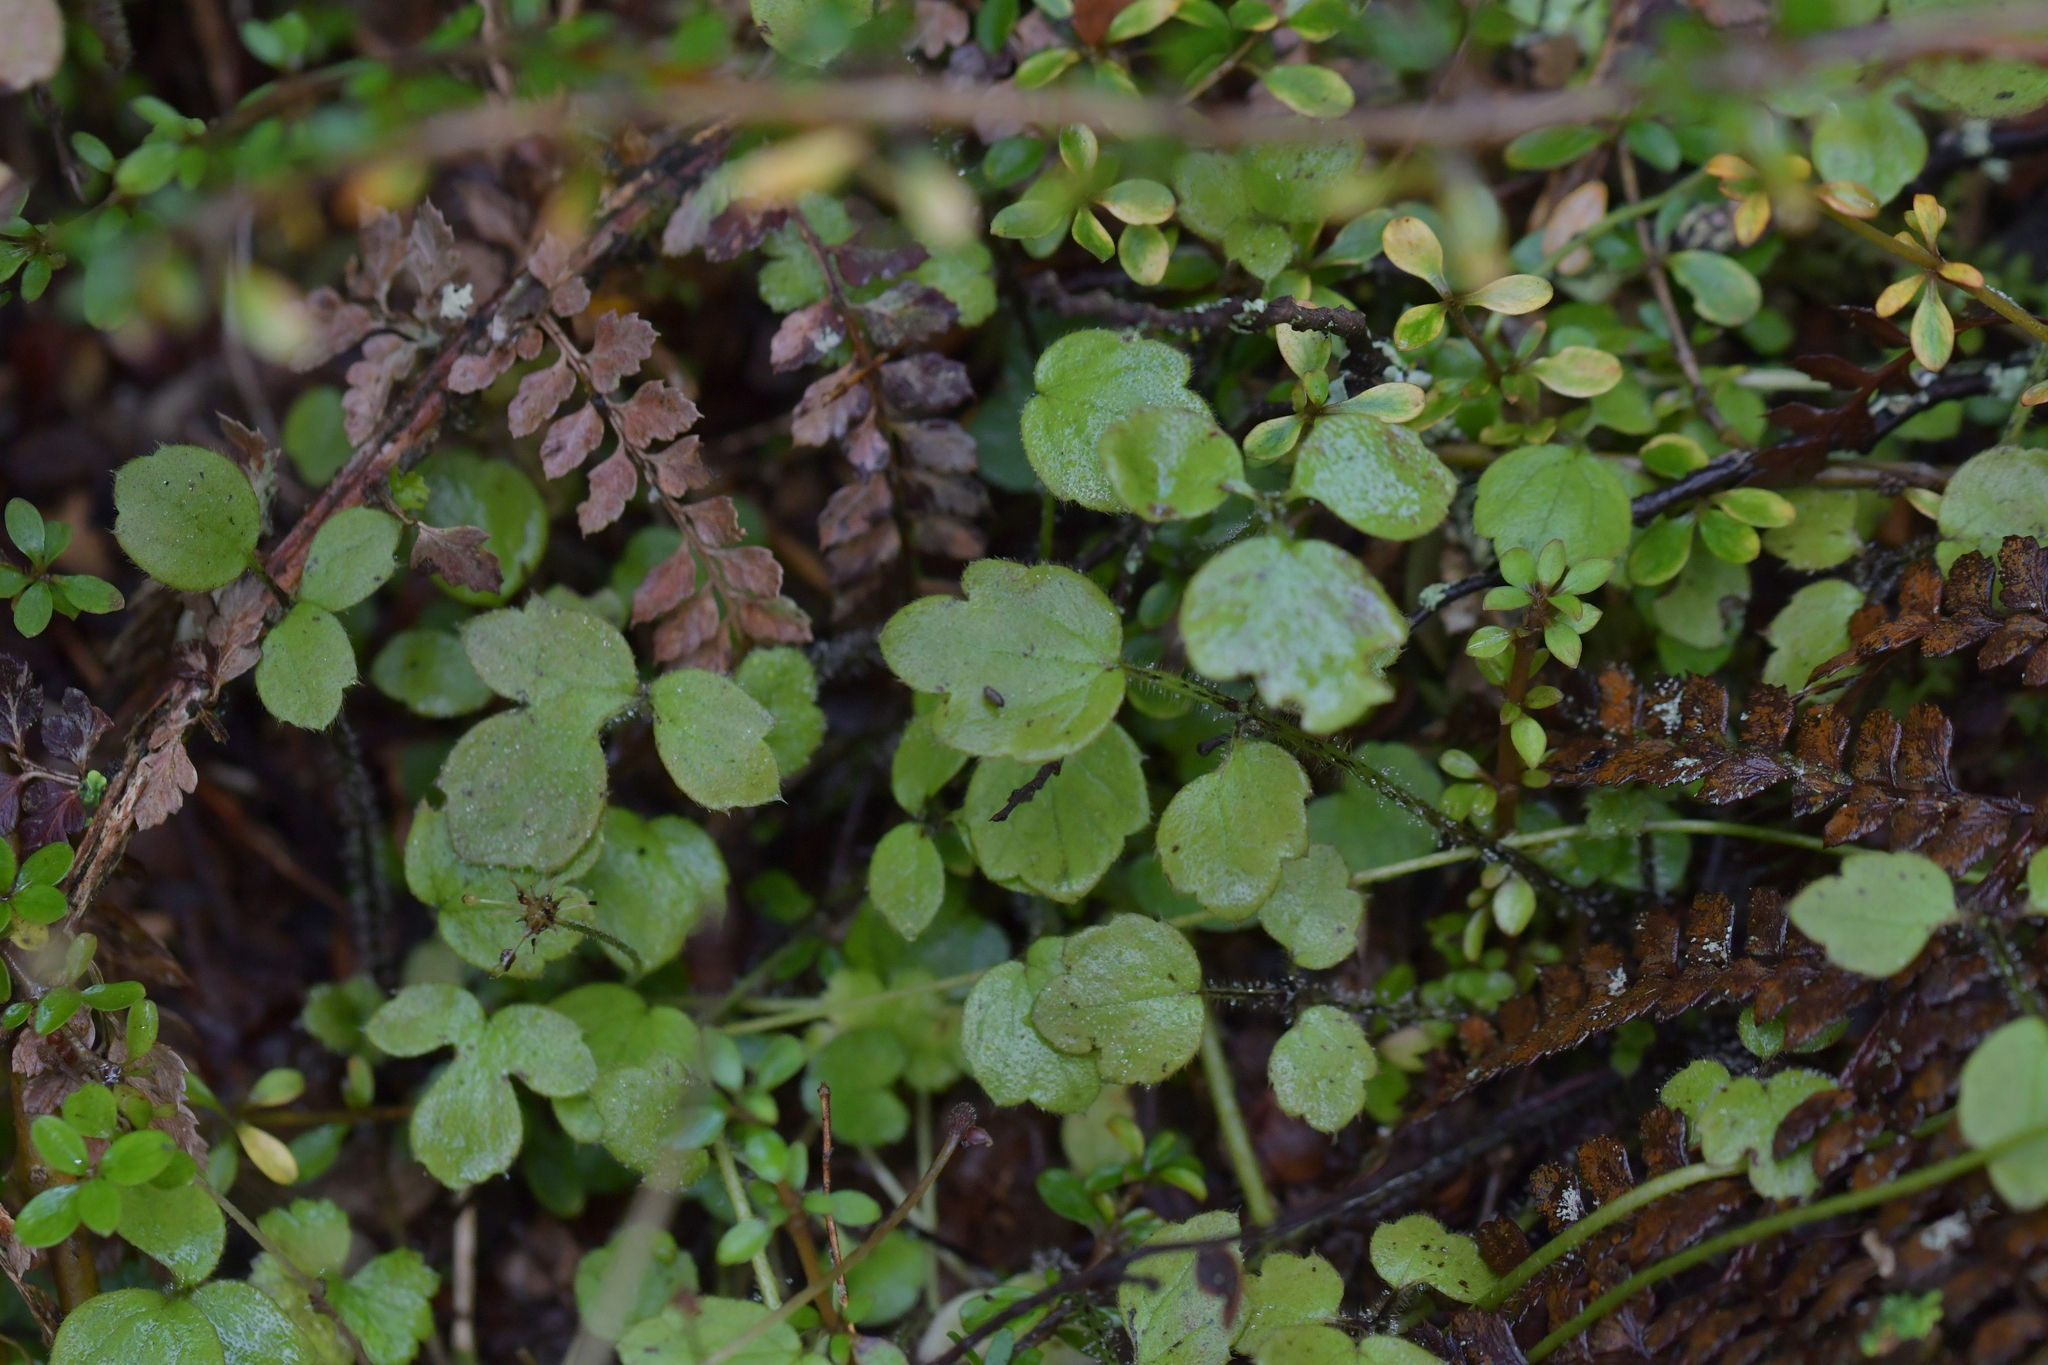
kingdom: Plantae
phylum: Tracheophyta
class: Magnoliopsida
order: Ranunculales
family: Ranunculaceae
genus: Ranunculus
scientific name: Ranunculus reflexus
